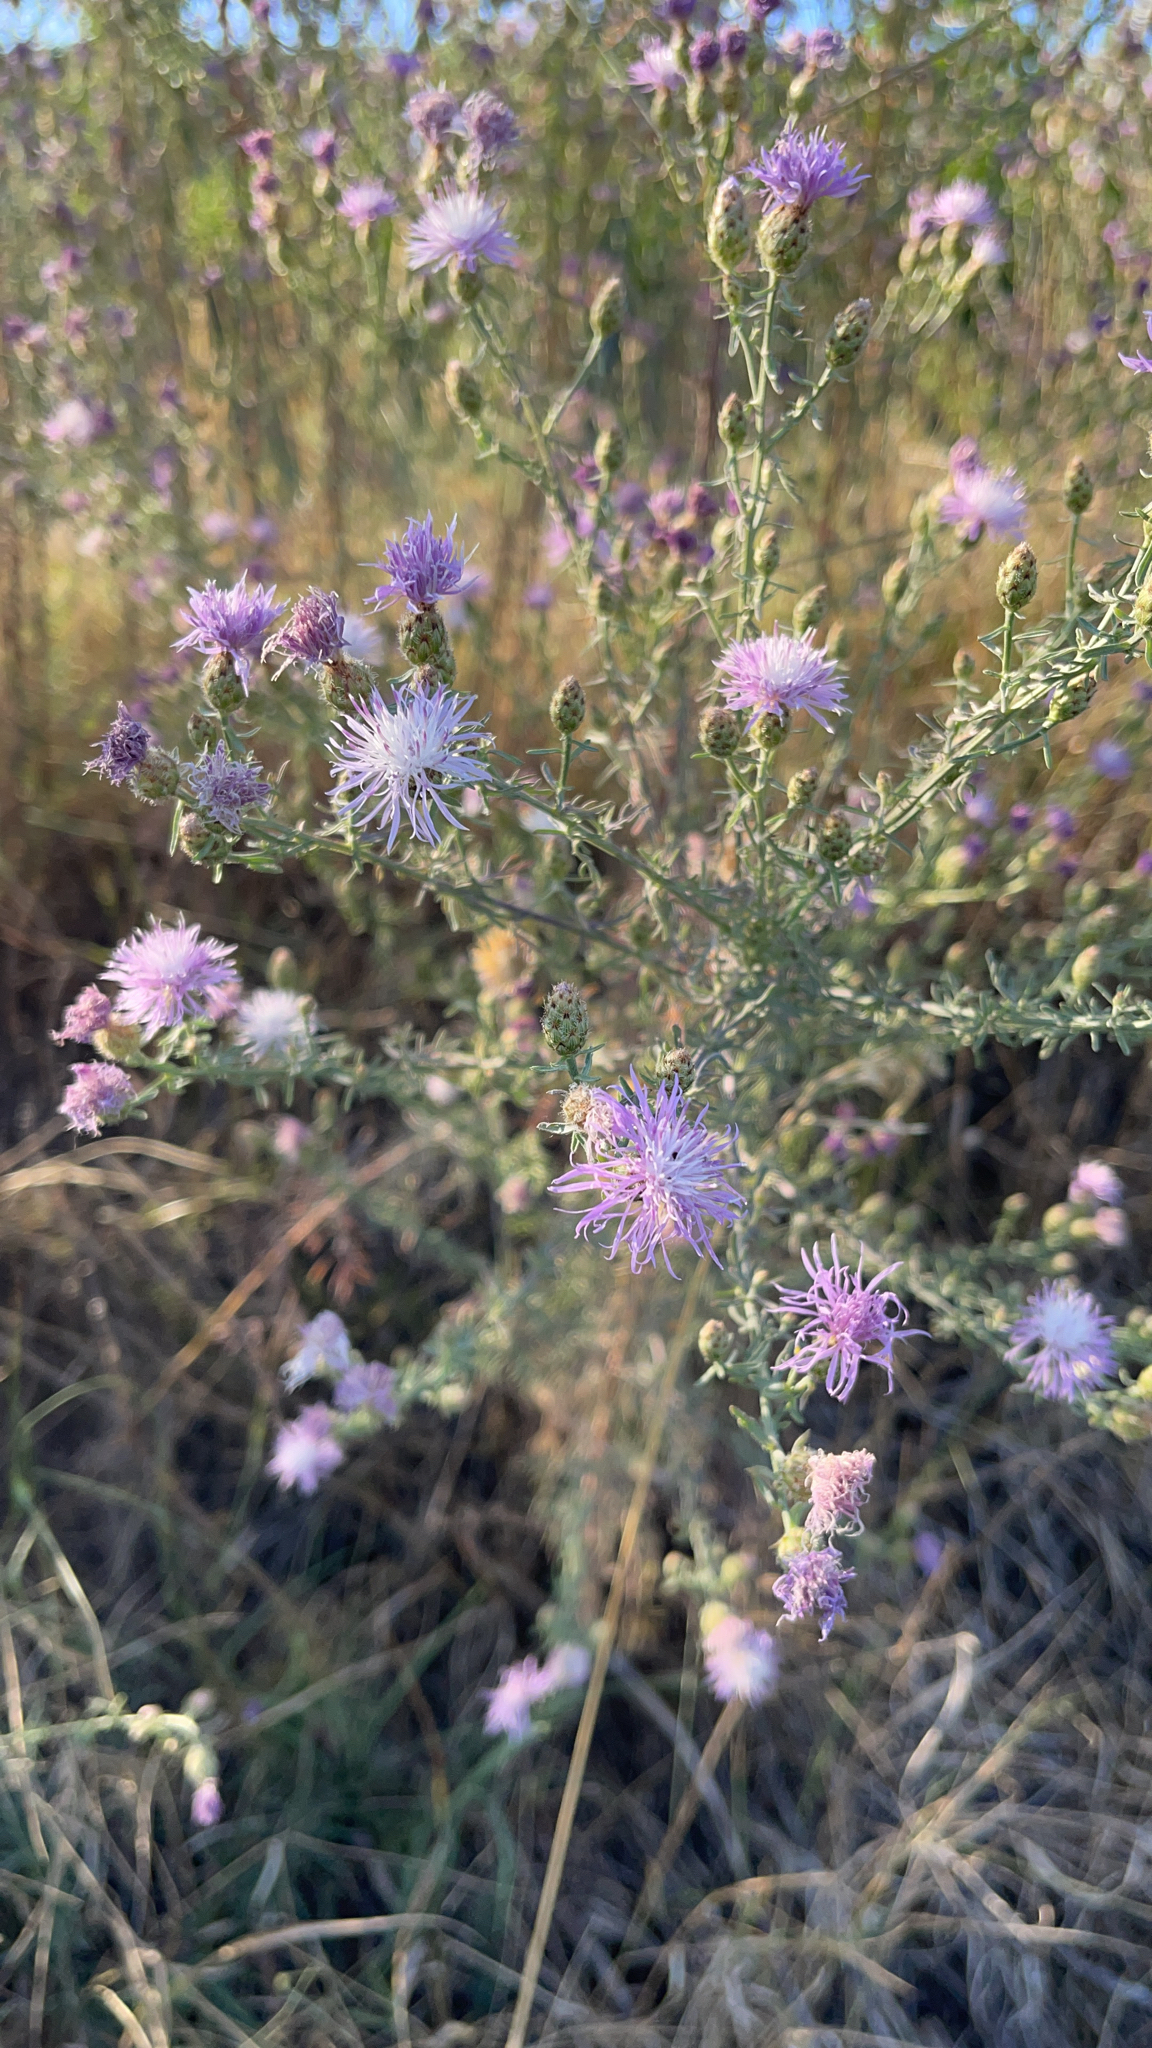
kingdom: Plantae
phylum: Tracheophyta
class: Magnoliopsida
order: Asterales
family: Asteraceae
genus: Centaurea
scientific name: Centaurea stoebe
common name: Spotted knapweed
